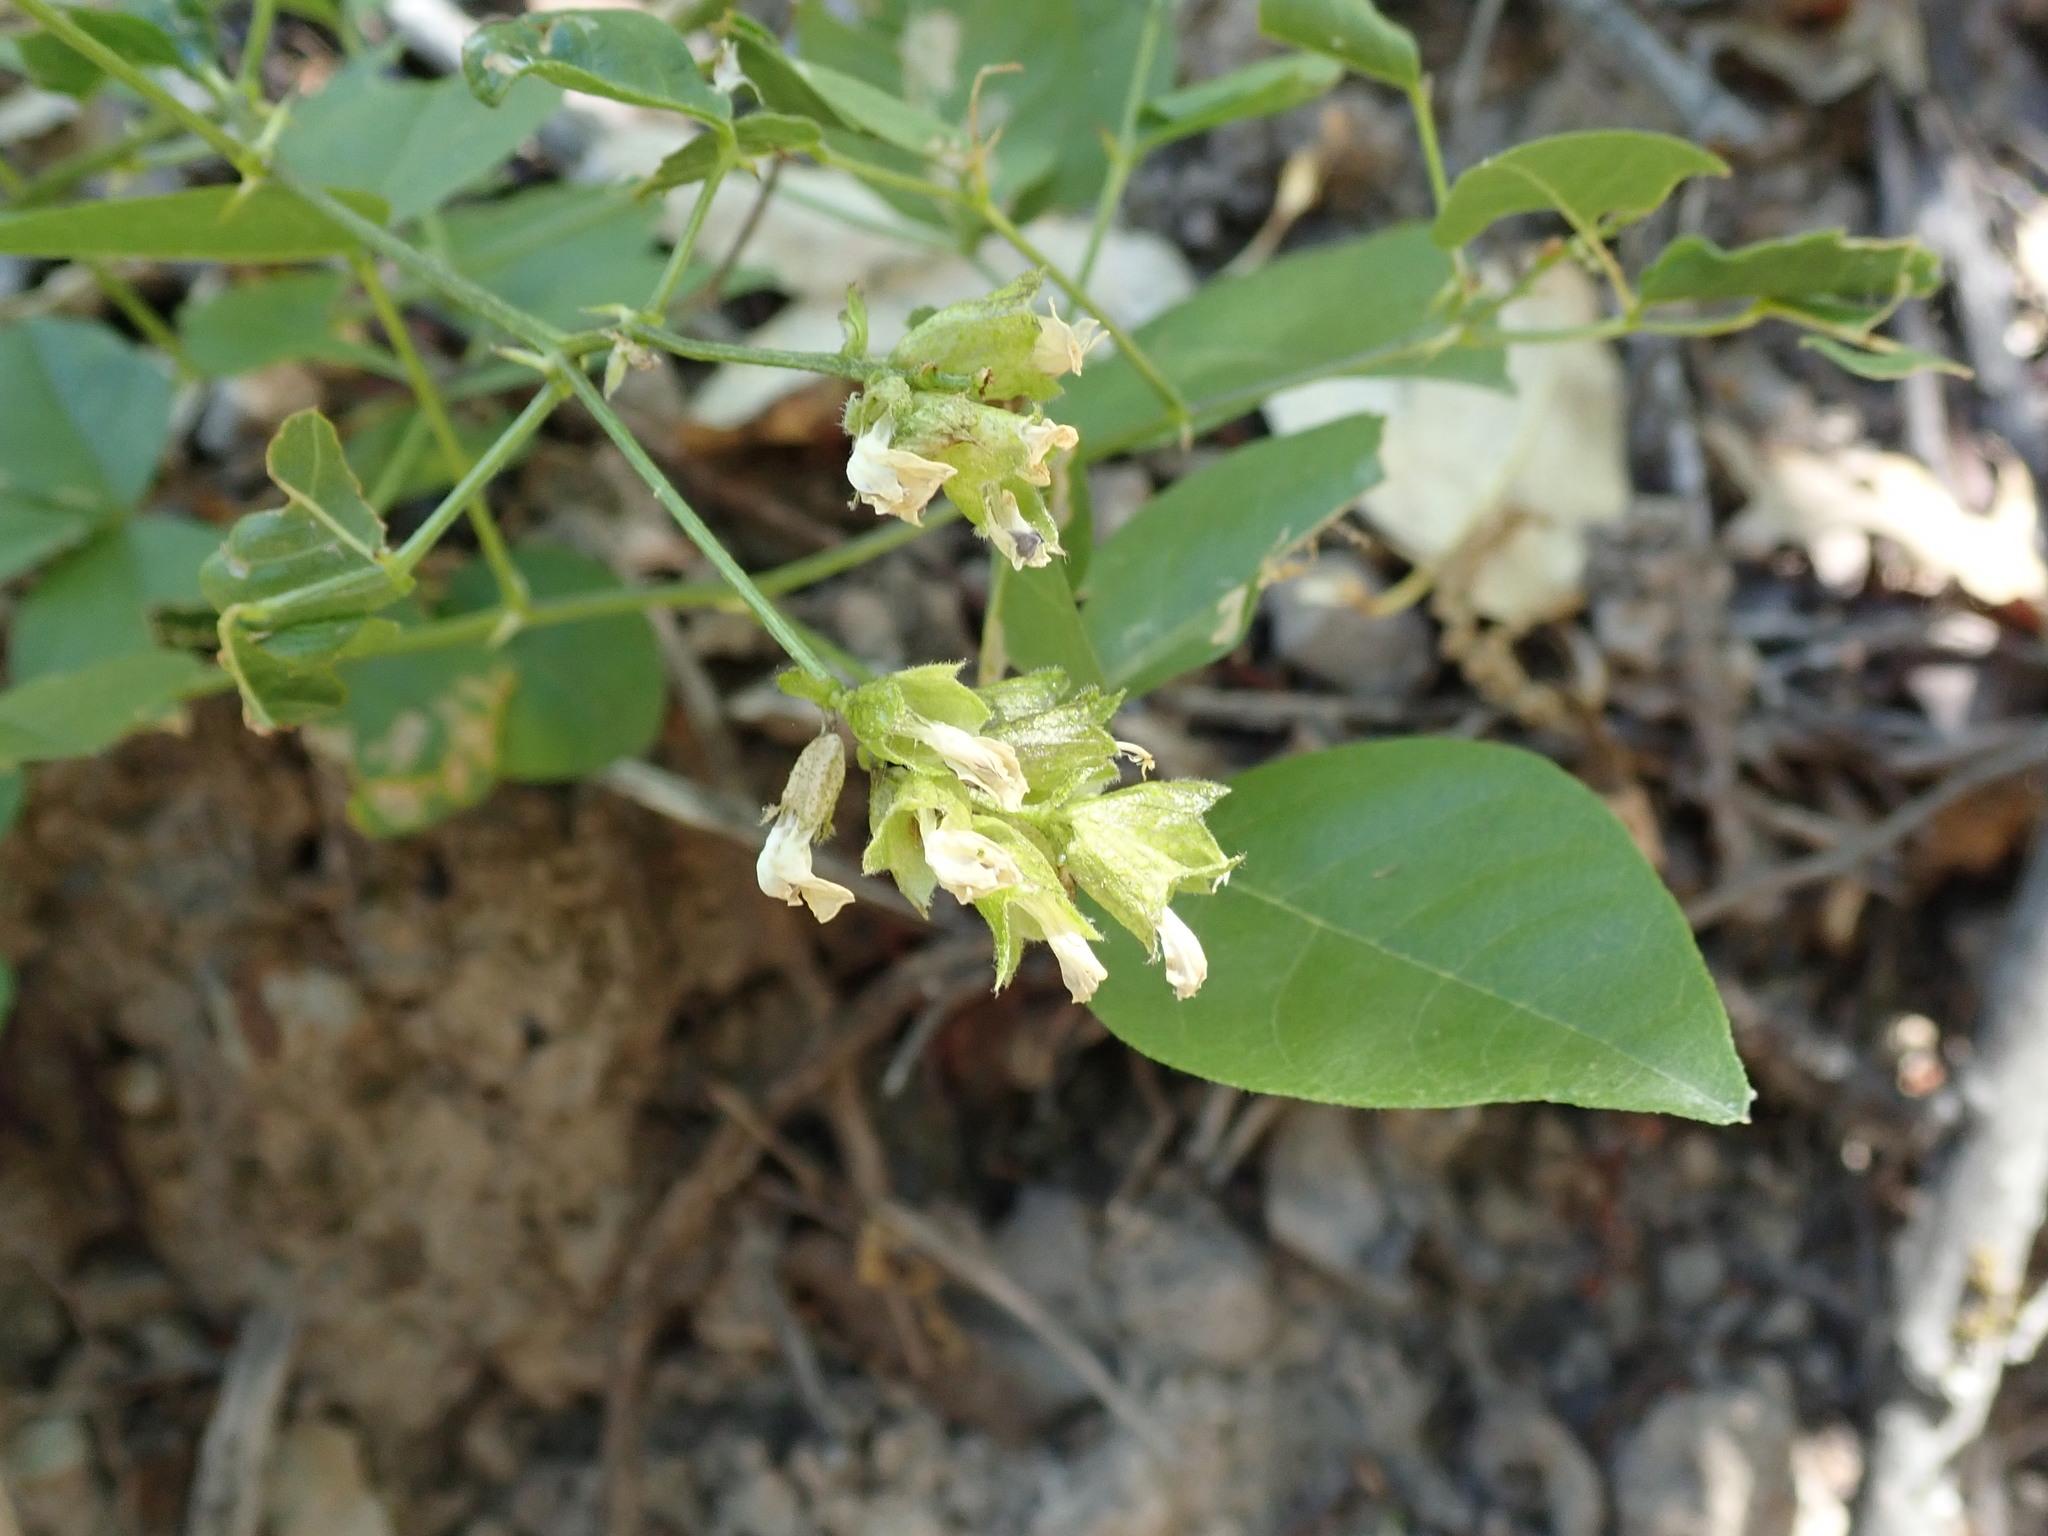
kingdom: Plantae
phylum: Tracheophyta
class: Magnoliopsida
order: Fabales
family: Fabaceae
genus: Rupertia
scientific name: Rupertia physodes
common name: California-tea
